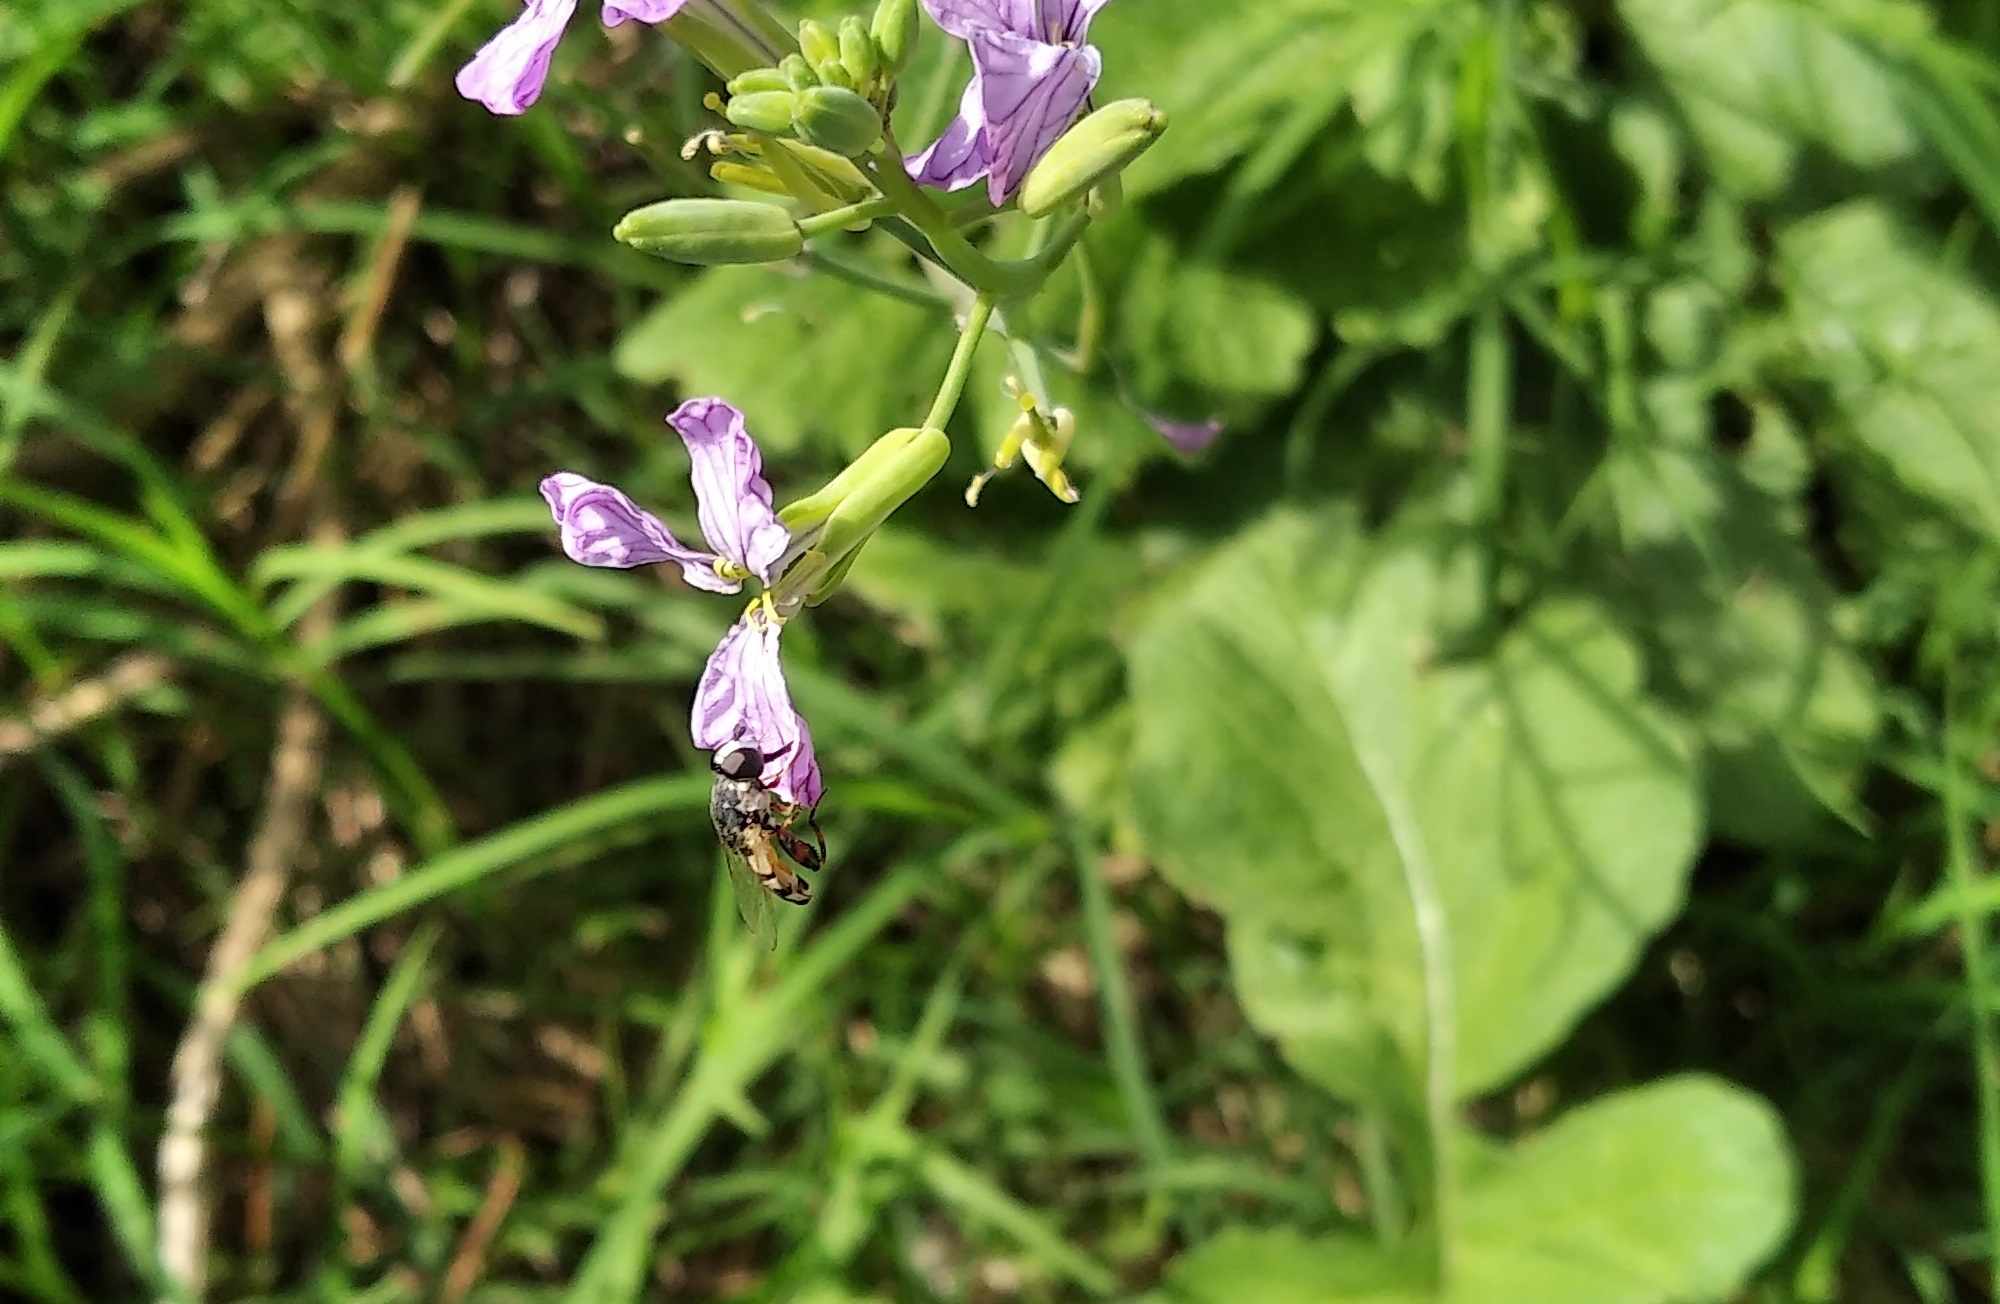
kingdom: Animalia
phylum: Arthropoda
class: Insecta
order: Diptera
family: Syrphidae
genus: Syritta
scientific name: Syritta flaviventris
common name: Syrphid fly
